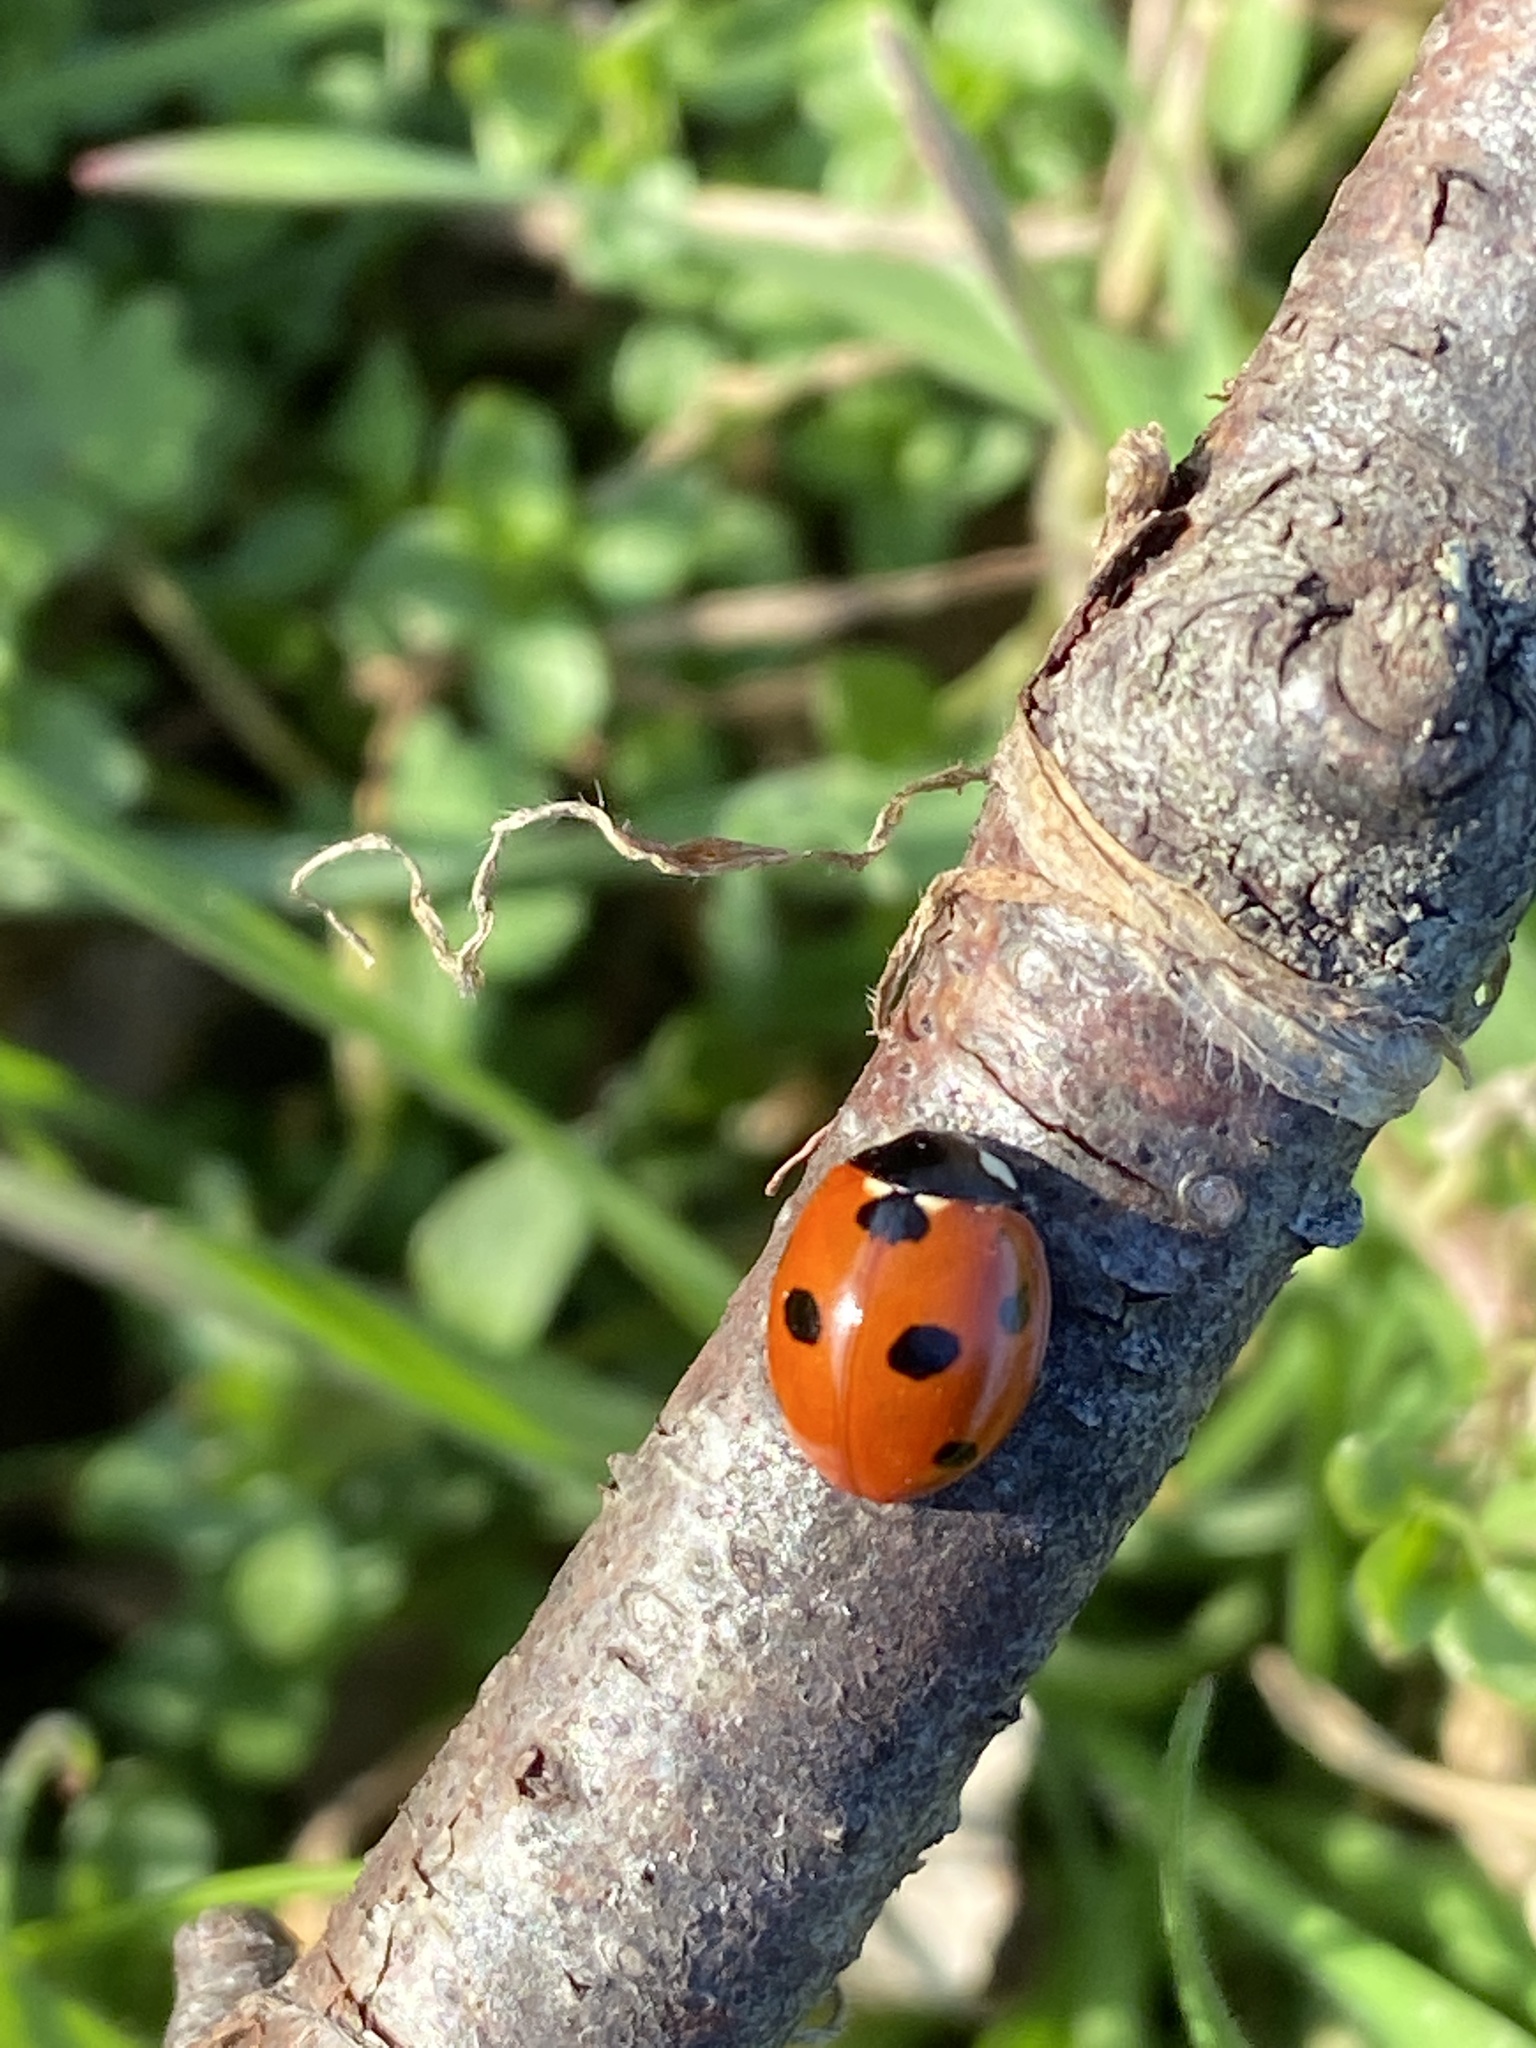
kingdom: Animalia
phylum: Arthropoda
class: Insecta
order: Coleoptera
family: Coccinellidae
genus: Coccinella
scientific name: Coccinella septempunctata
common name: Sevenspotted lady beetle
